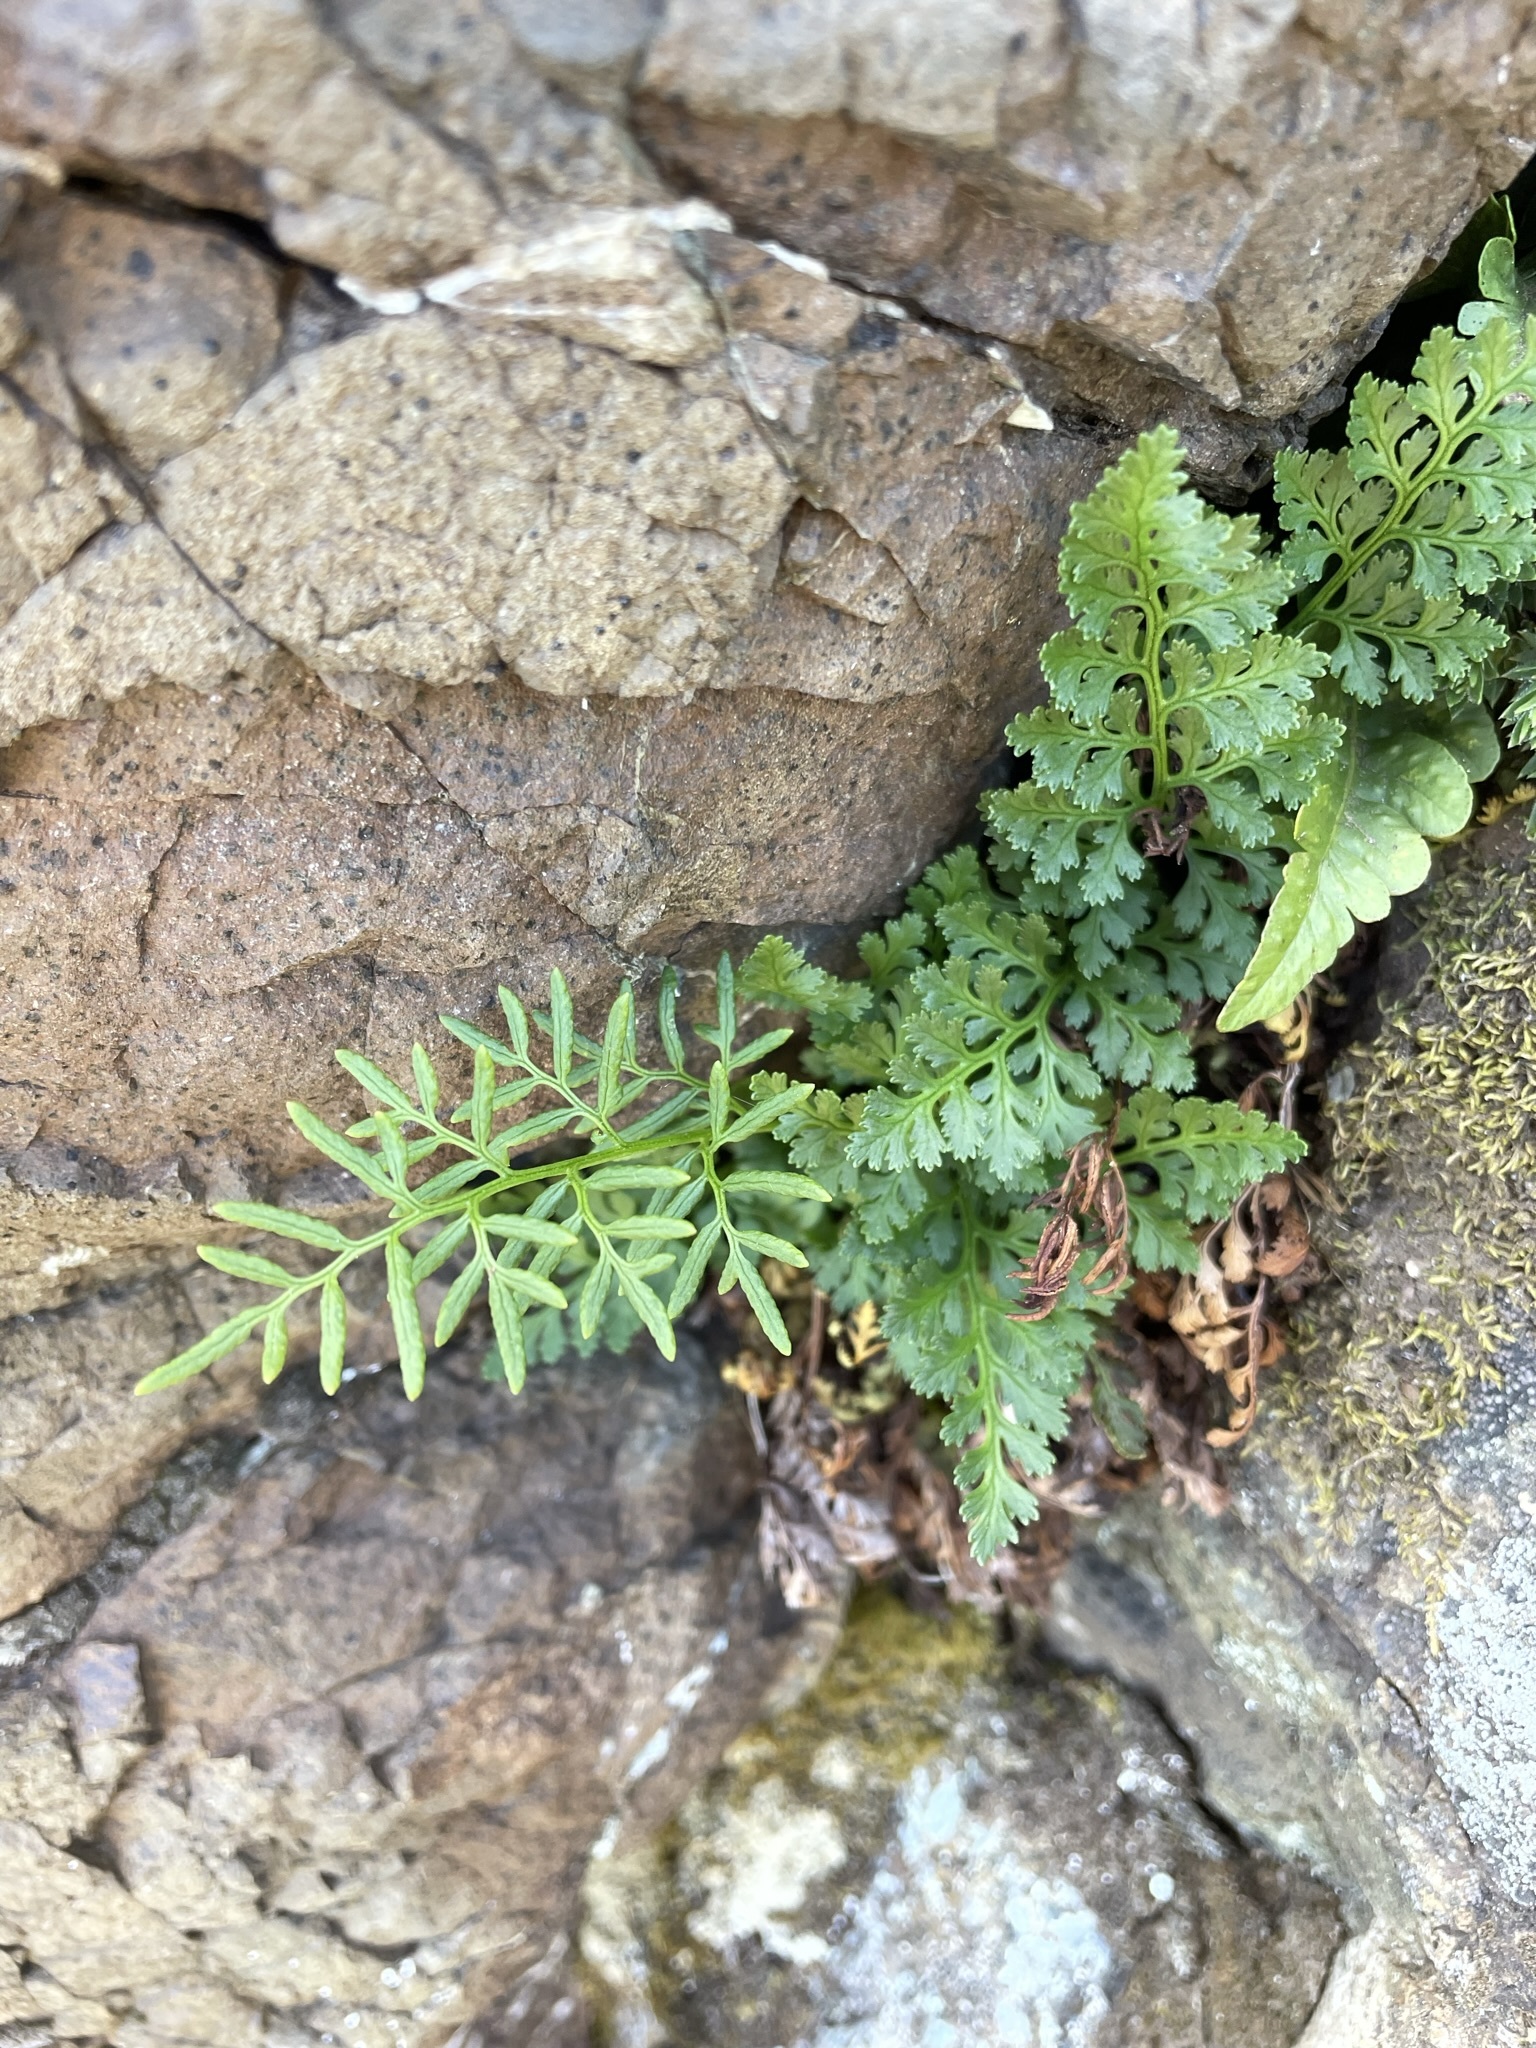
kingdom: Plantae
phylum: Tracheophyta
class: Polypodiopsida
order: Polypodiales
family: Pteridaceae
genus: Cryptogramma
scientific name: Cryptogramma acrostichoides
